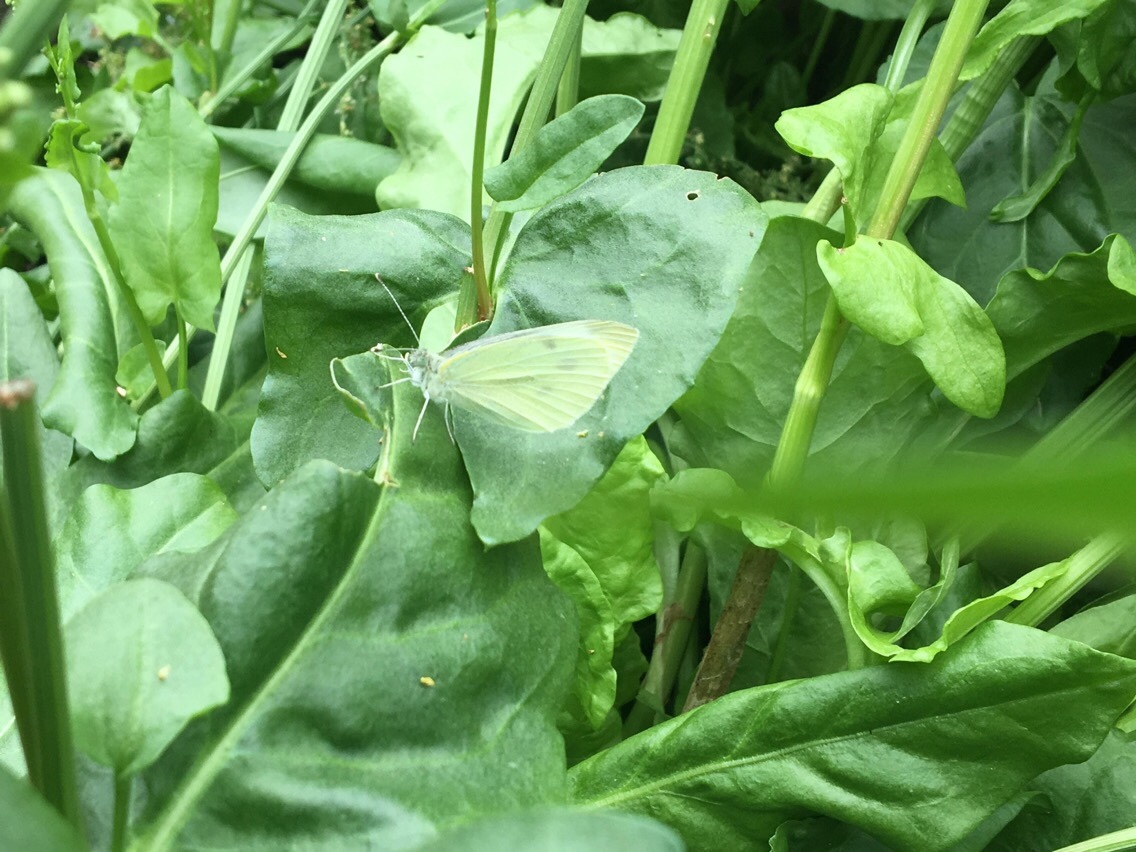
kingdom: Animalia
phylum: Arthropoda
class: Insecta
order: Lepidoptera
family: Pieridae
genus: Pieris
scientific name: Pieris rapae
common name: Small white
